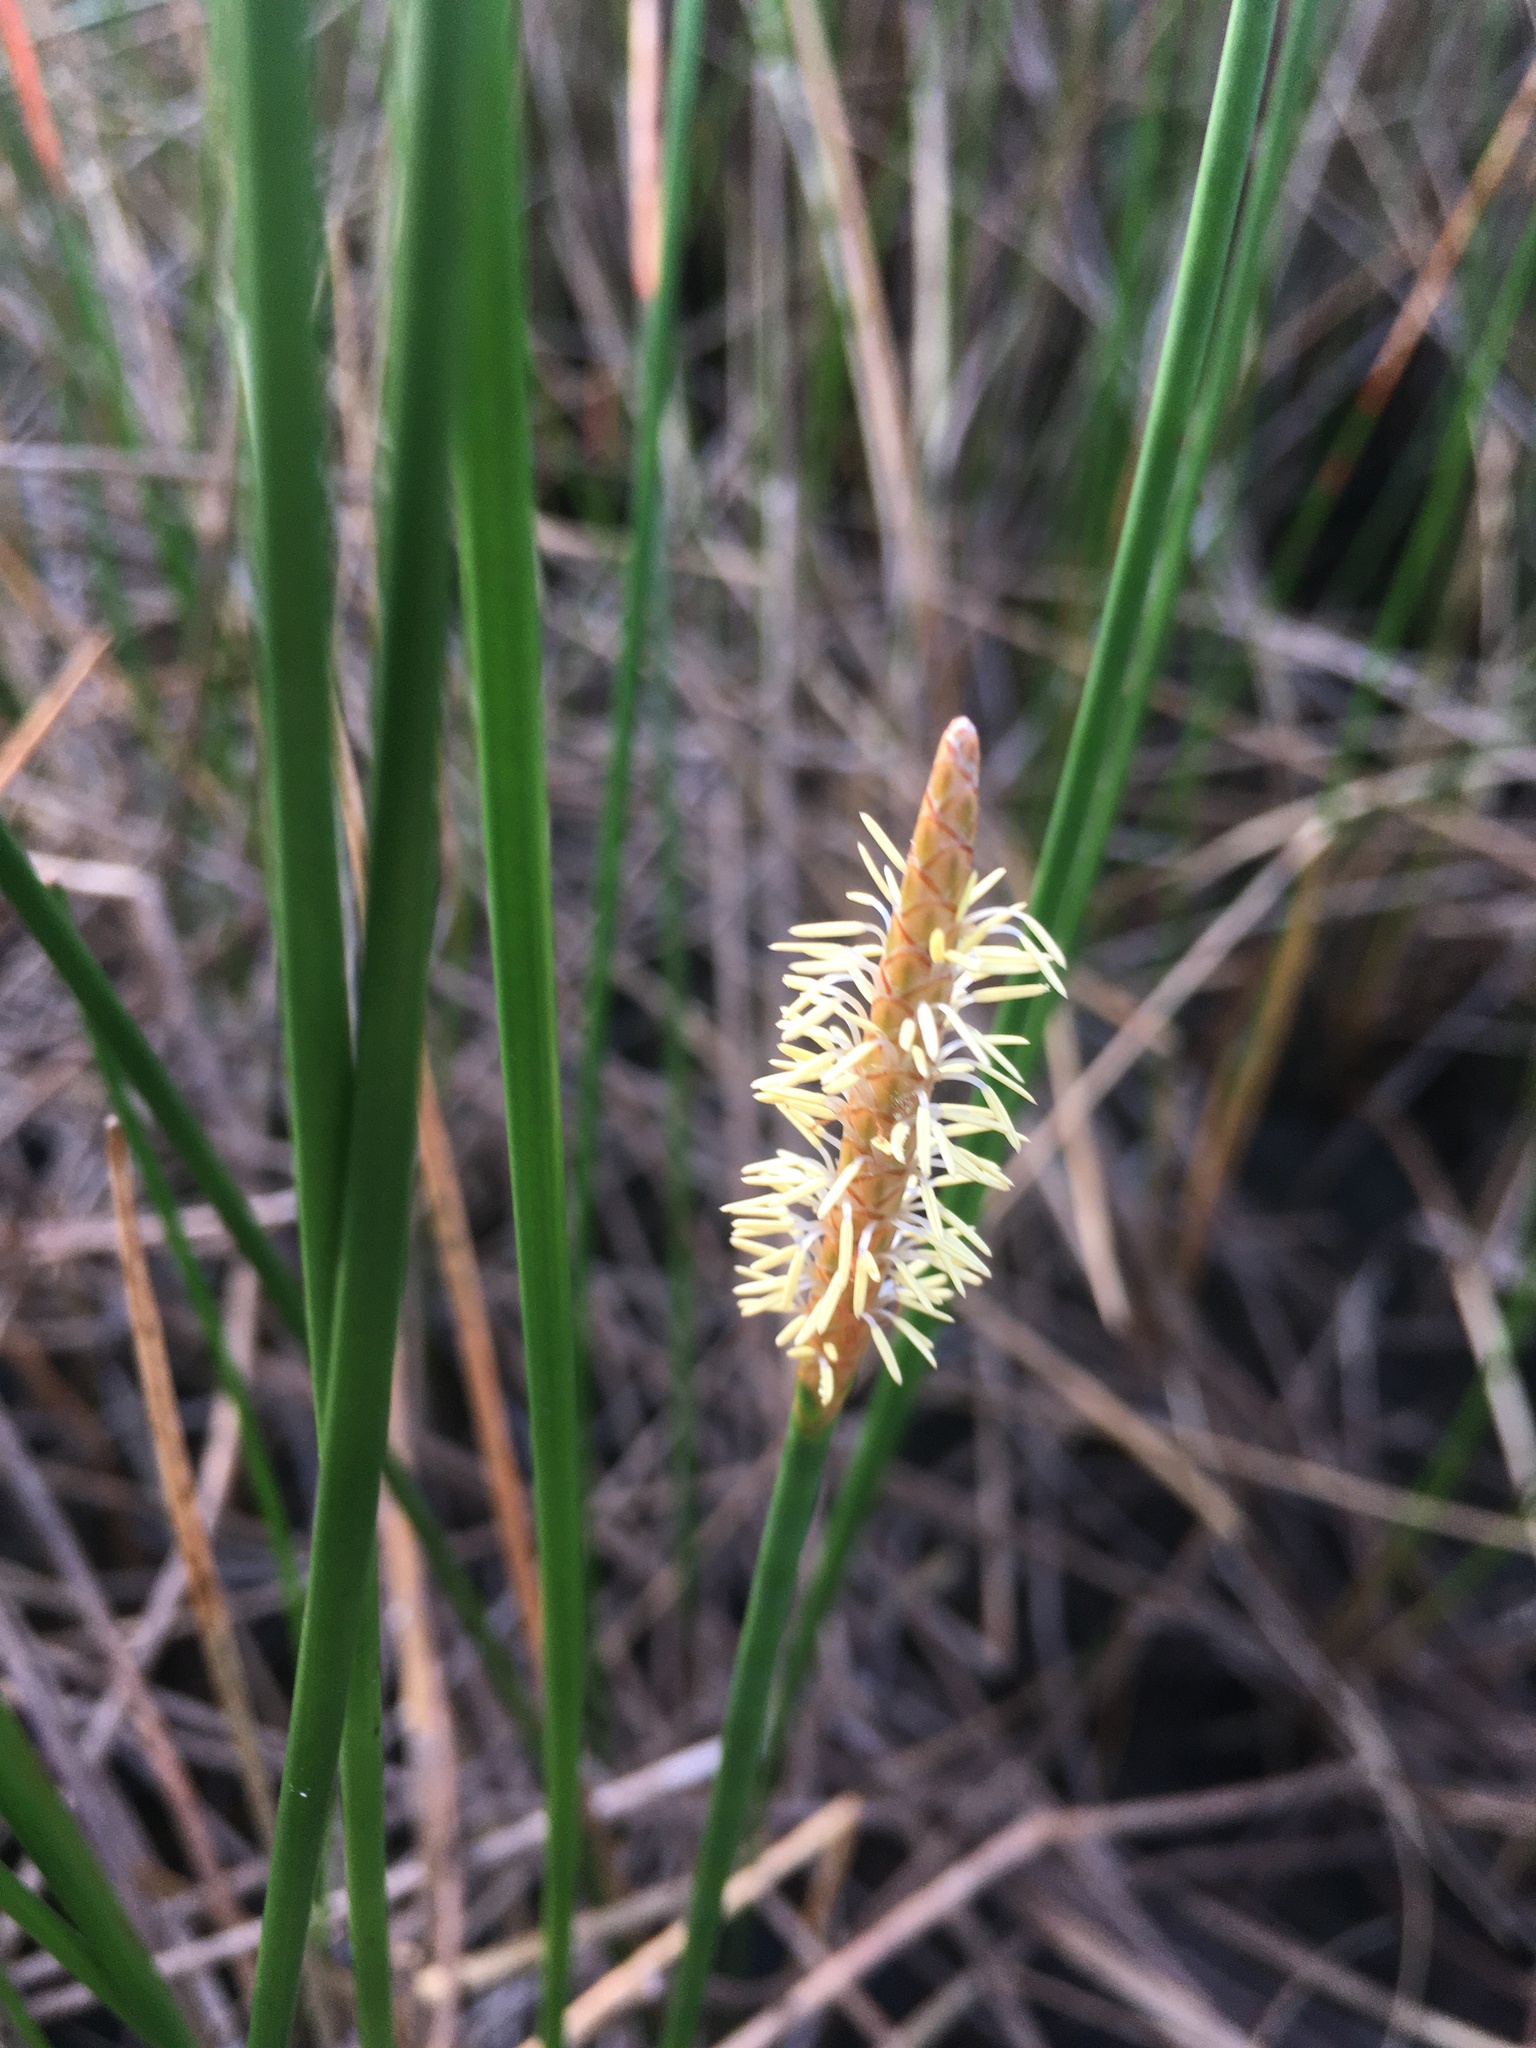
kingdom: Plantae
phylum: Tracheophyta
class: Liliopsida
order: Poales
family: Cyperaceae
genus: Eleocharis
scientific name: Eleocharis cellulosa
